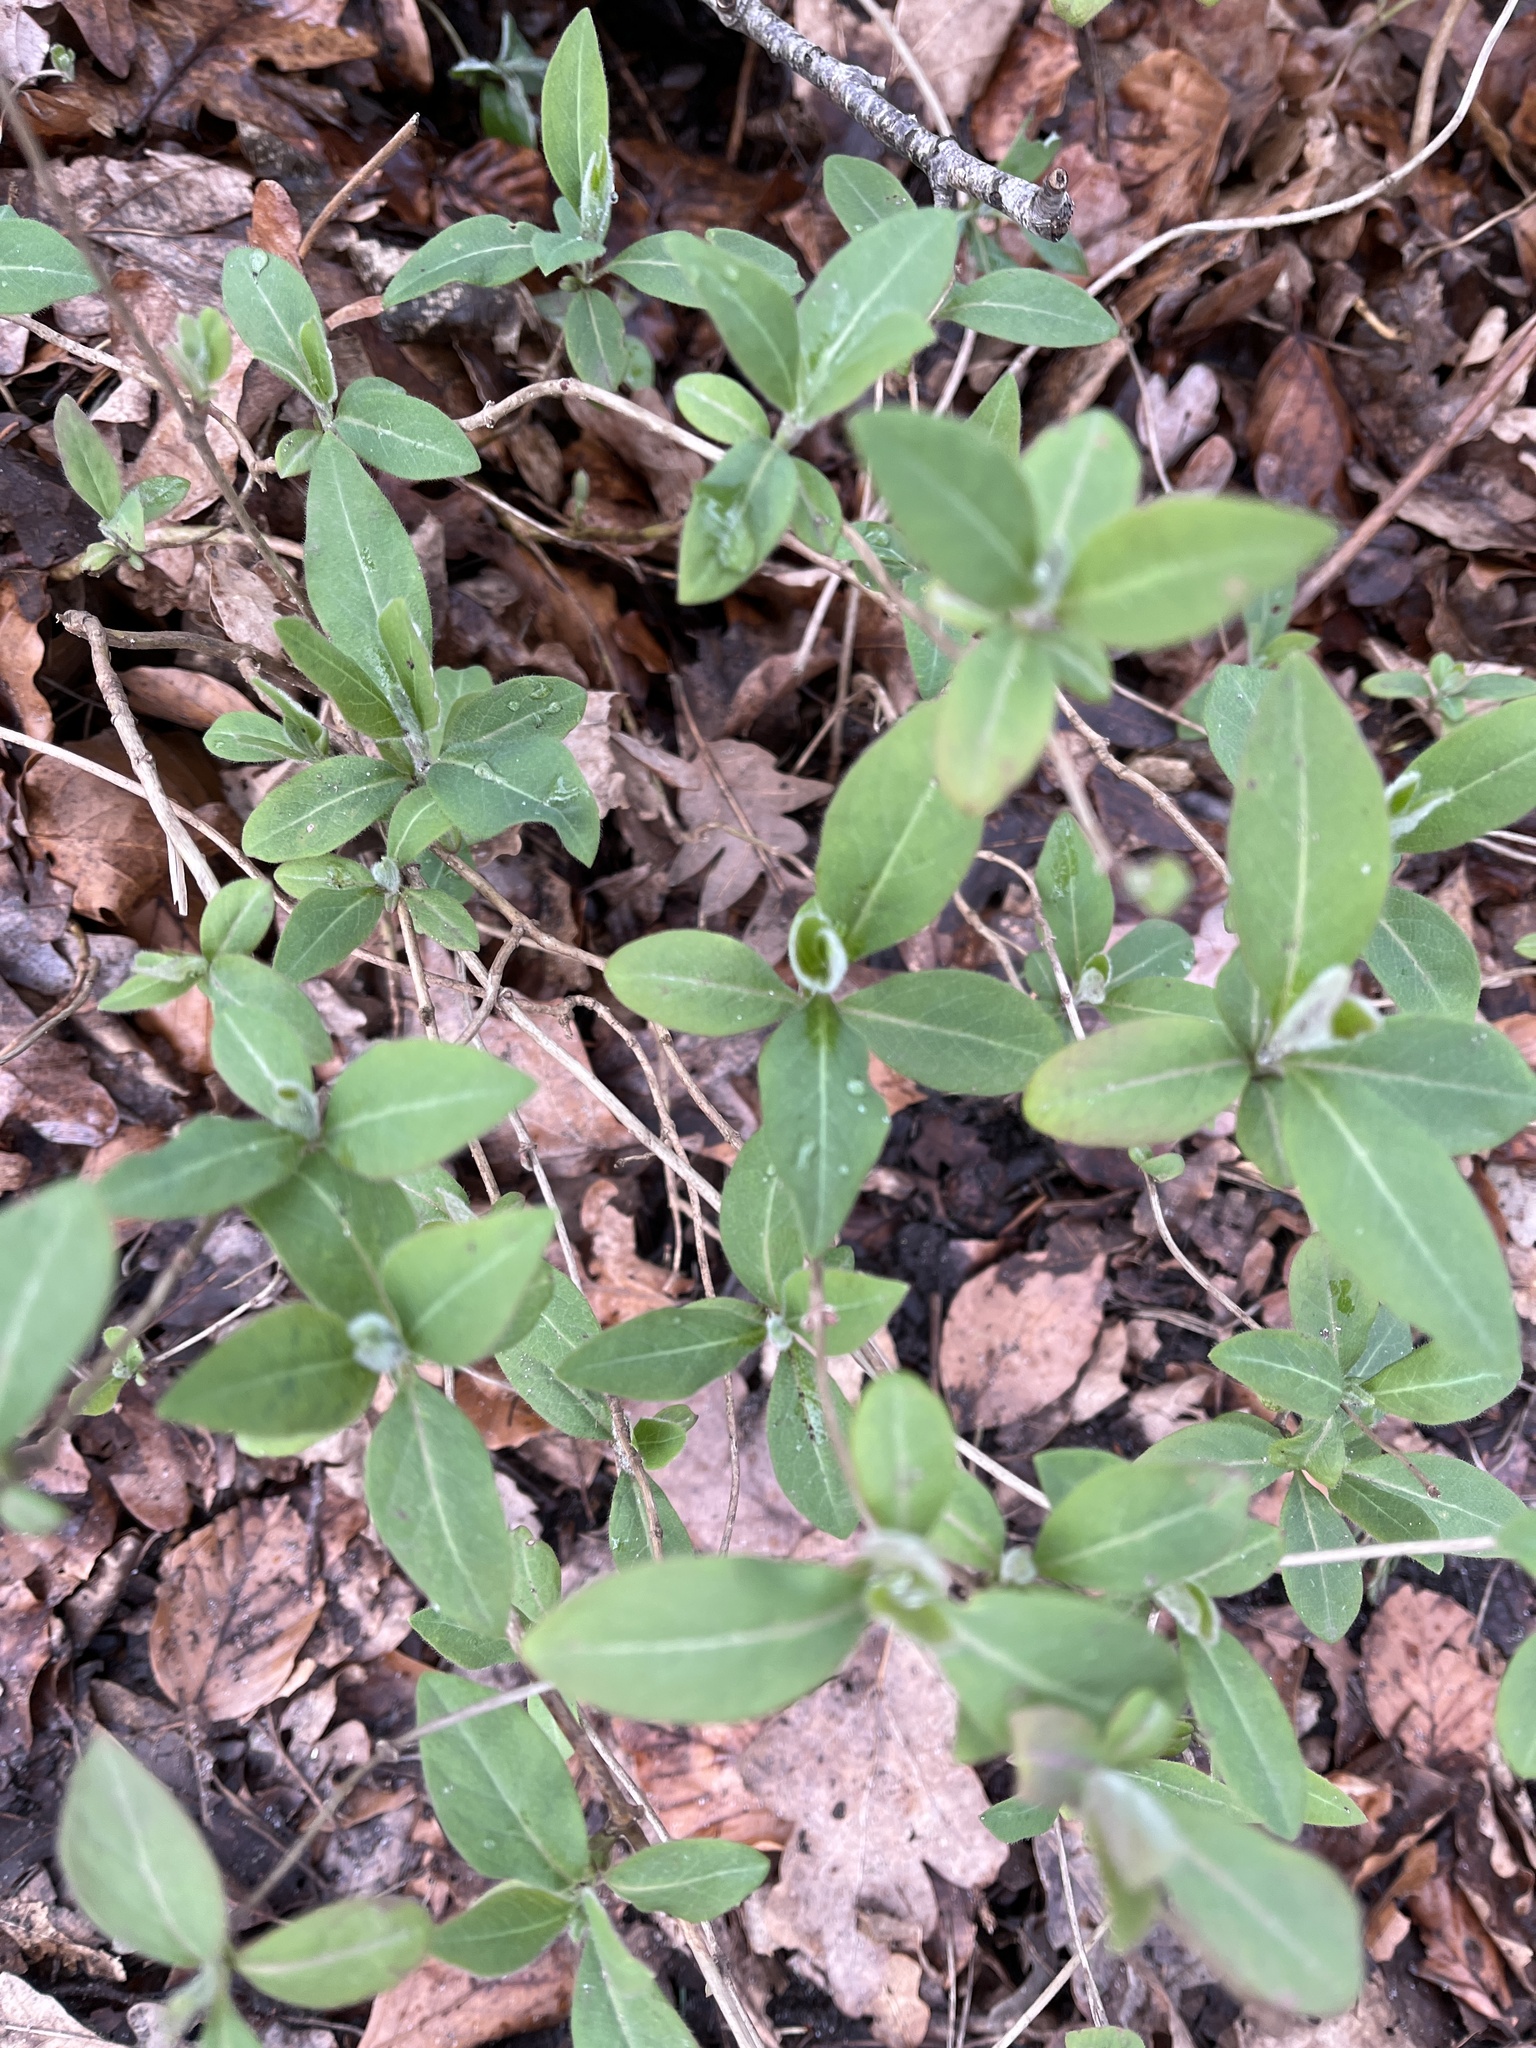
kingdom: Plantae
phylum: Tracheophyta
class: Magnoliopsida
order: Dipsacales
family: Caprifoliaceae
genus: Lonicera
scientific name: Lonicera periclymenum
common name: European honeysuckle
